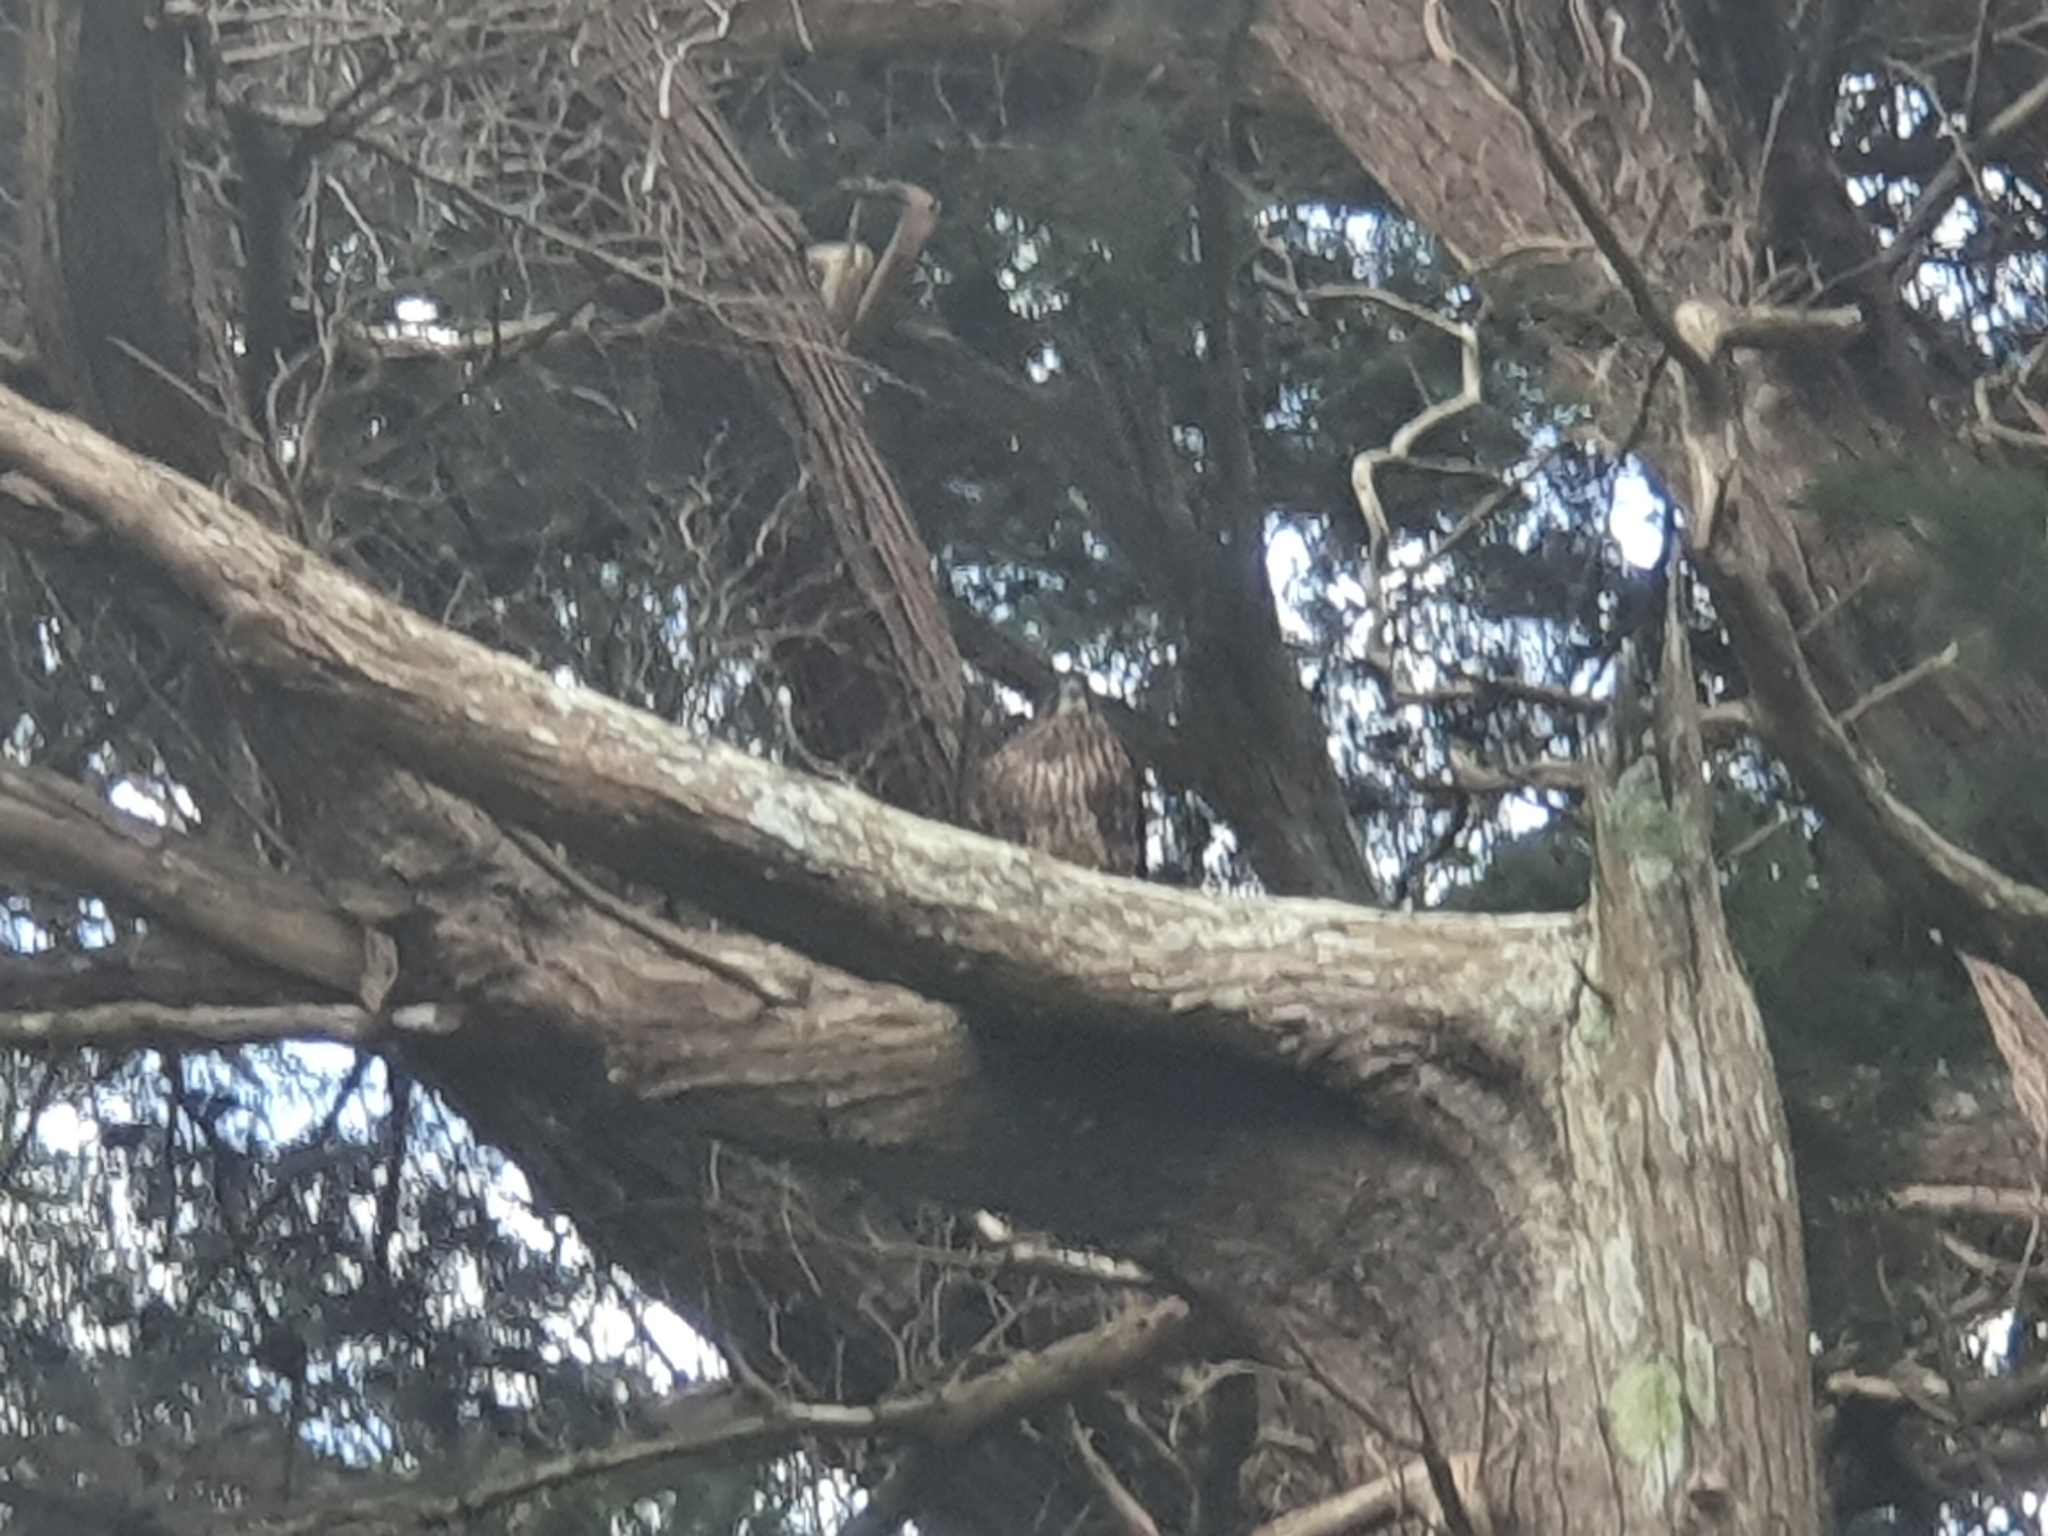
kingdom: Animalia
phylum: Chordata
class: Aves
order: Falconiformes
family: Falconidae
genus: Falco
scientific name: Falco novaeseelandiae
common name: New zealand falcon
